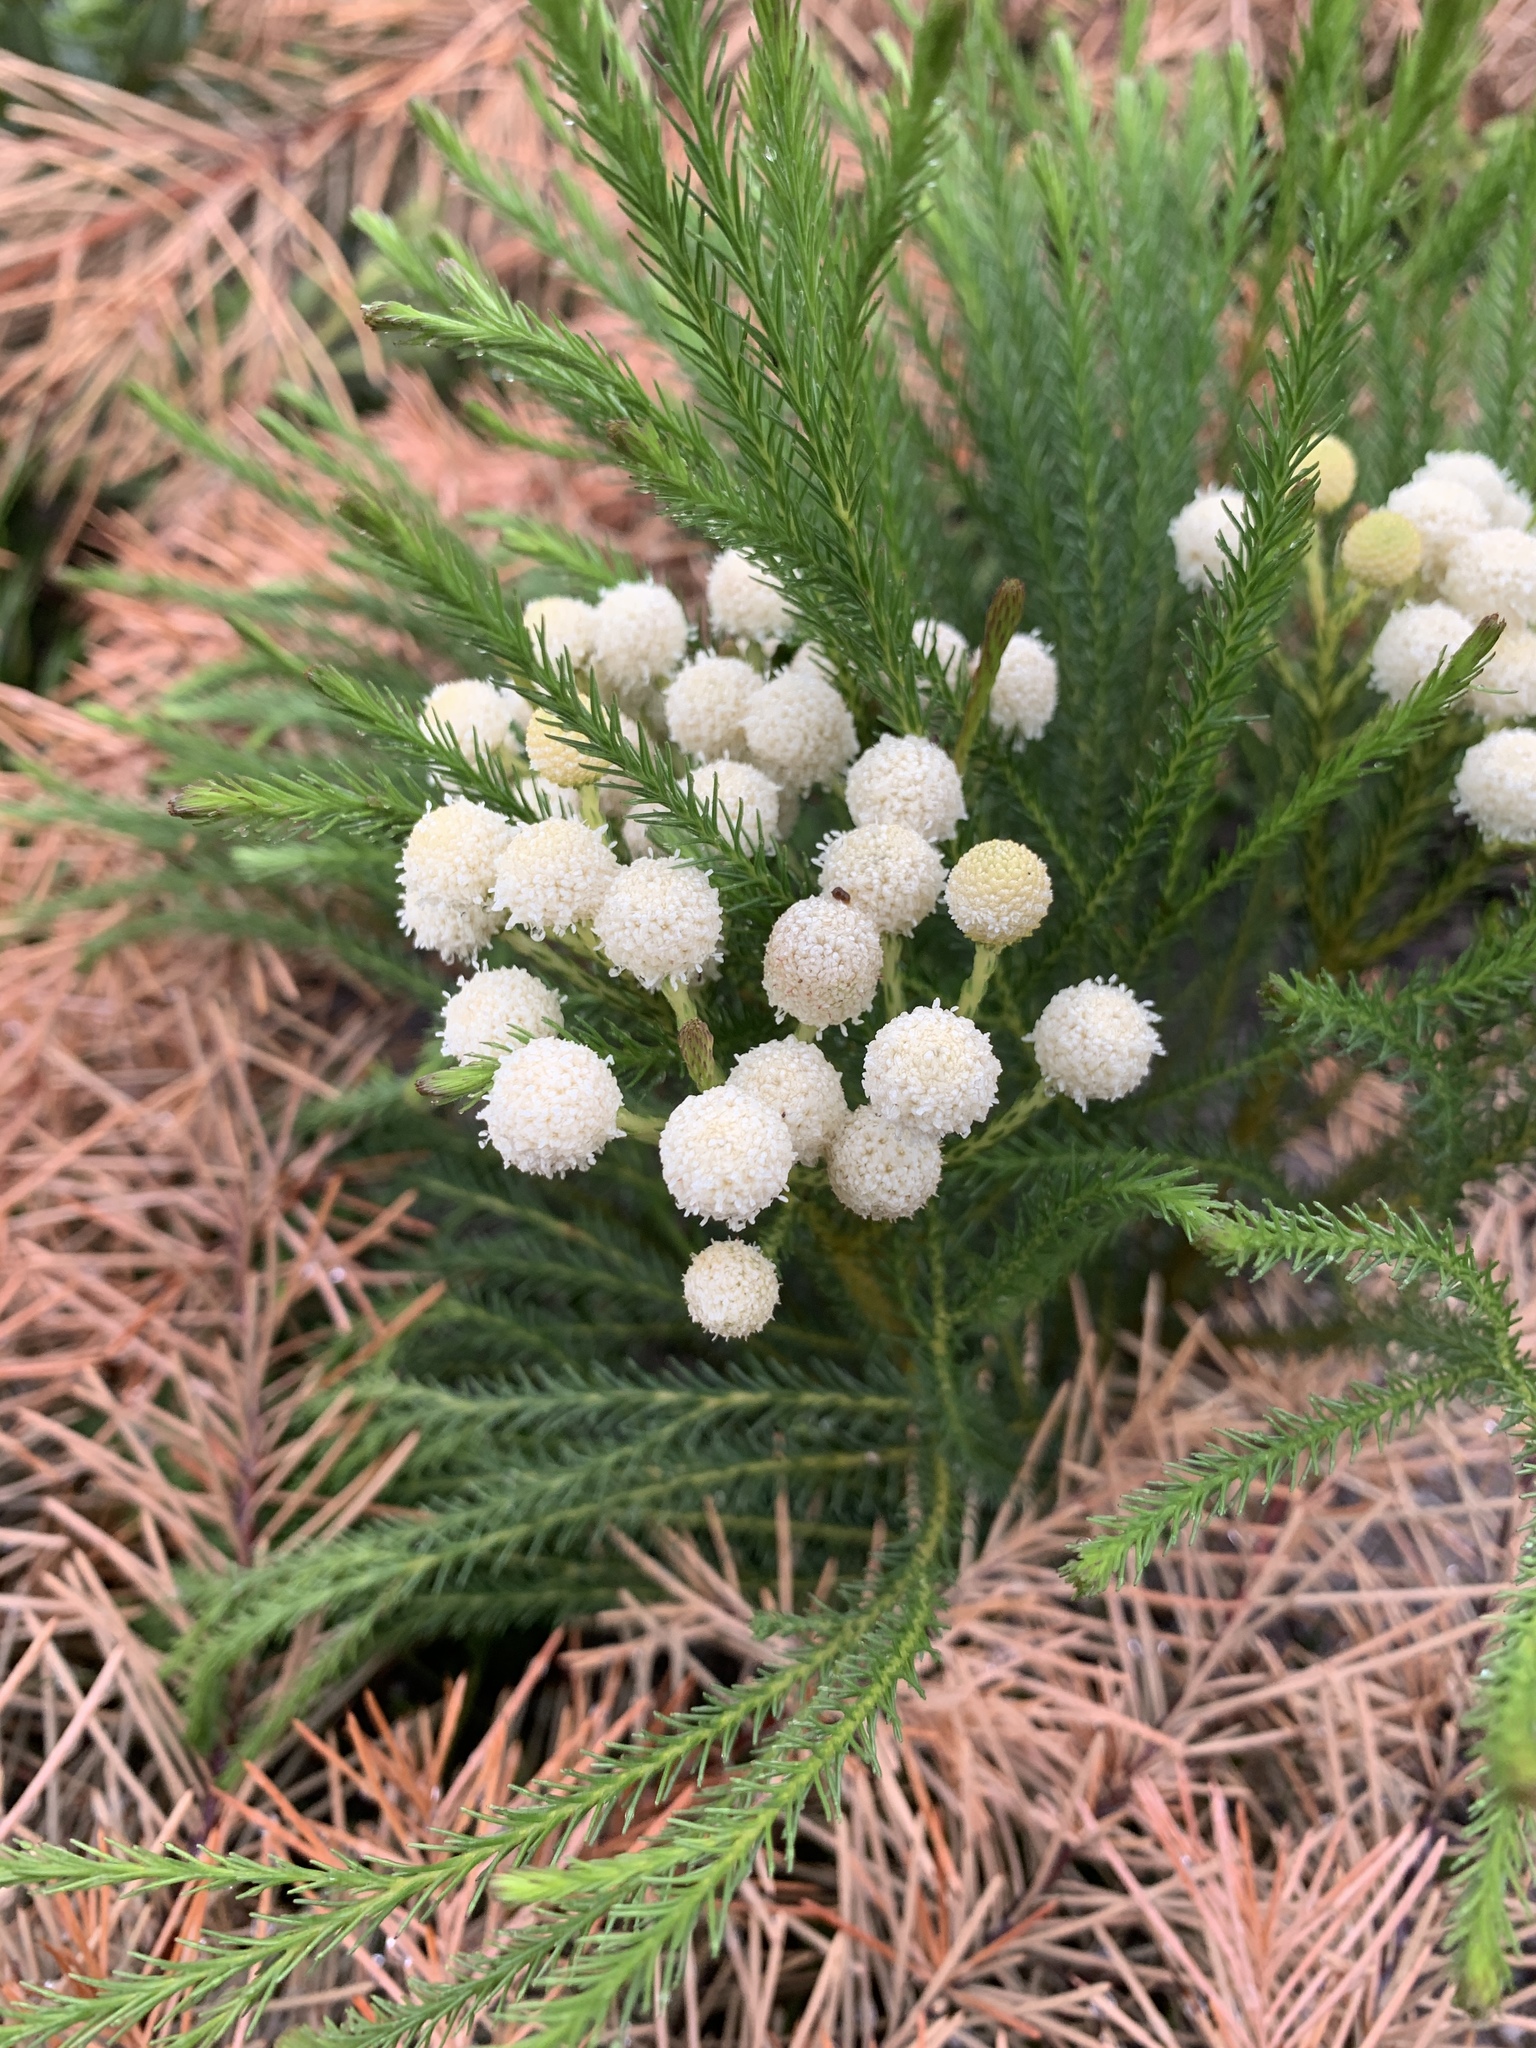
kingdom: Plantae
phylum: Tracheophyta
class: Magnoliopsida
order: Bruniales
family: Bruniaceae
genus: Berzelia
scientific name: Berzelia lanuginosa
